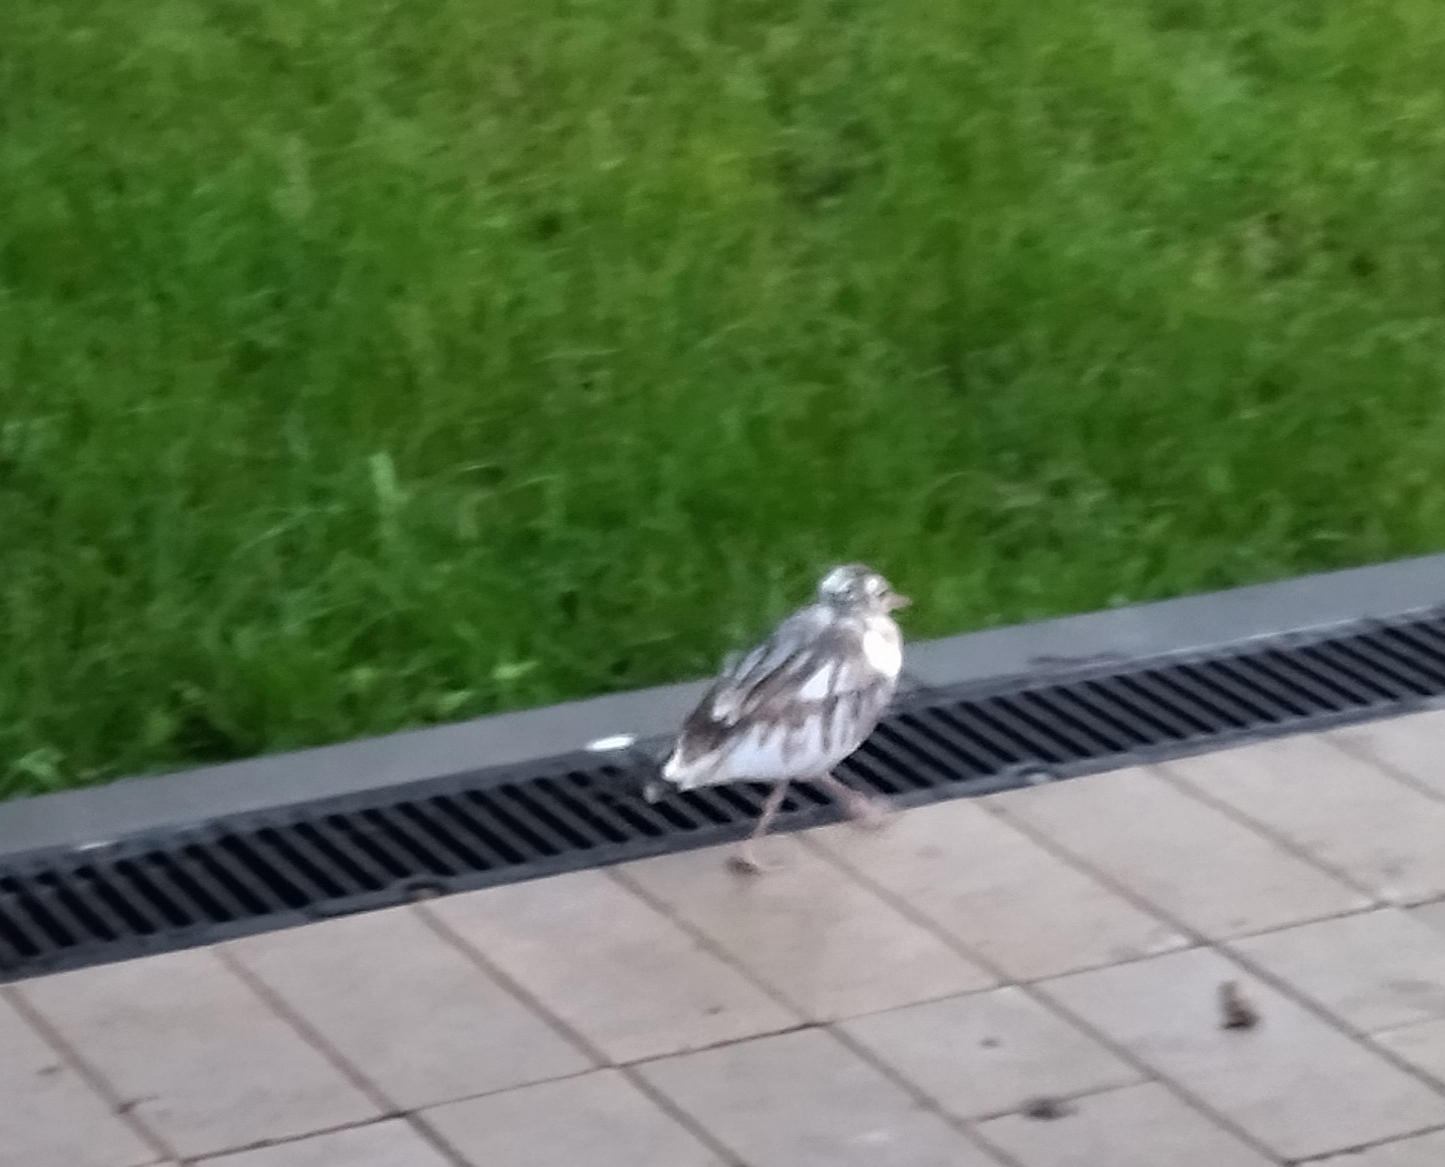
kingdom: Animalia
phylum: Chordata
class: Aves
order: Charadriiformes
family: Laridae
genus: Chroicocephalus
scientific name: Chroicocephalus ridibundus
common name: Black-headed gull
